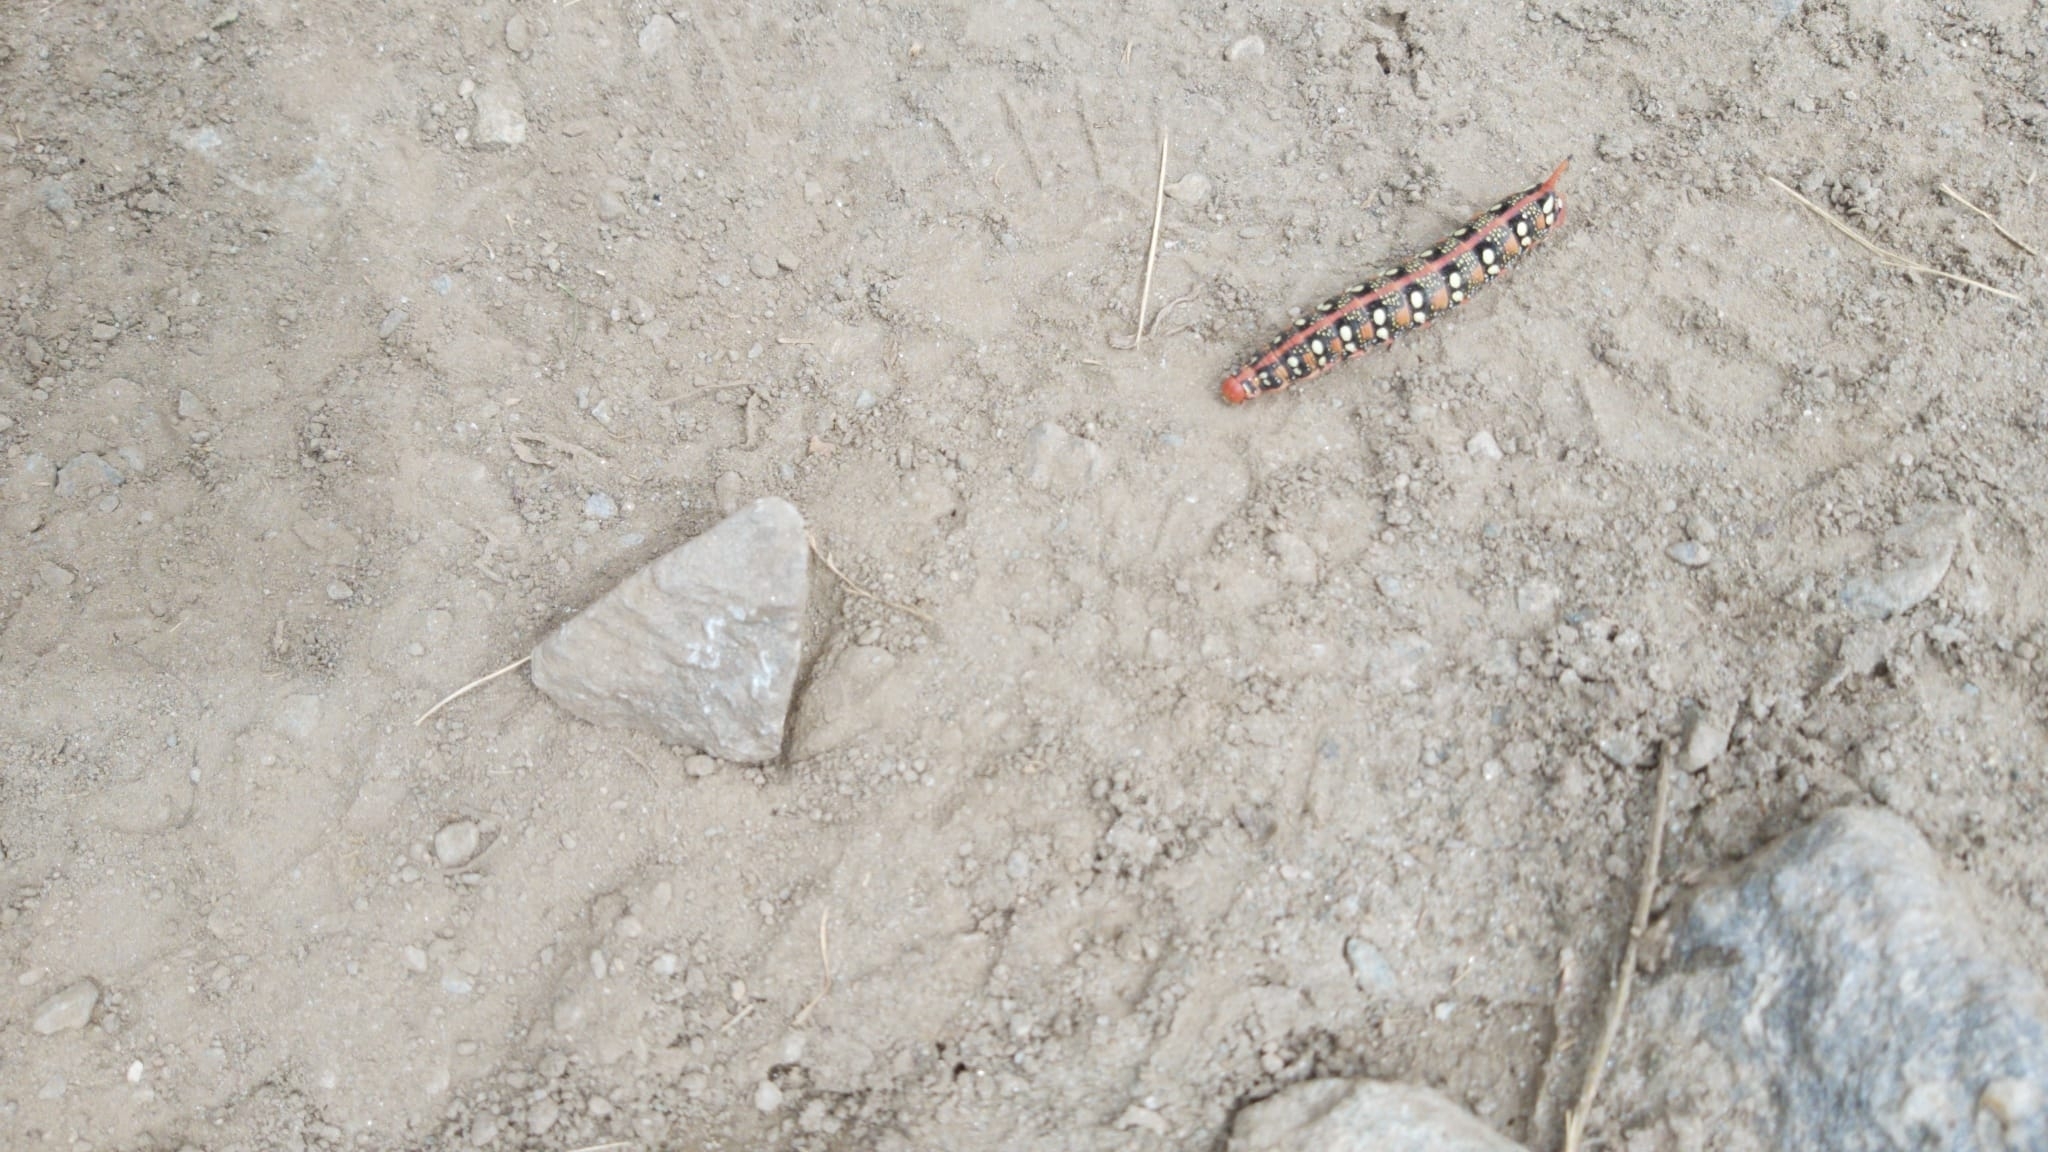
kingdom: Animalia
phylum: Arthropoda
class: Insecta
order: Lepidoptera
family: Sphingidae
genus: Hyles
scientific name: Hyles euphorbiae
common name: Spurge hawk-moth
